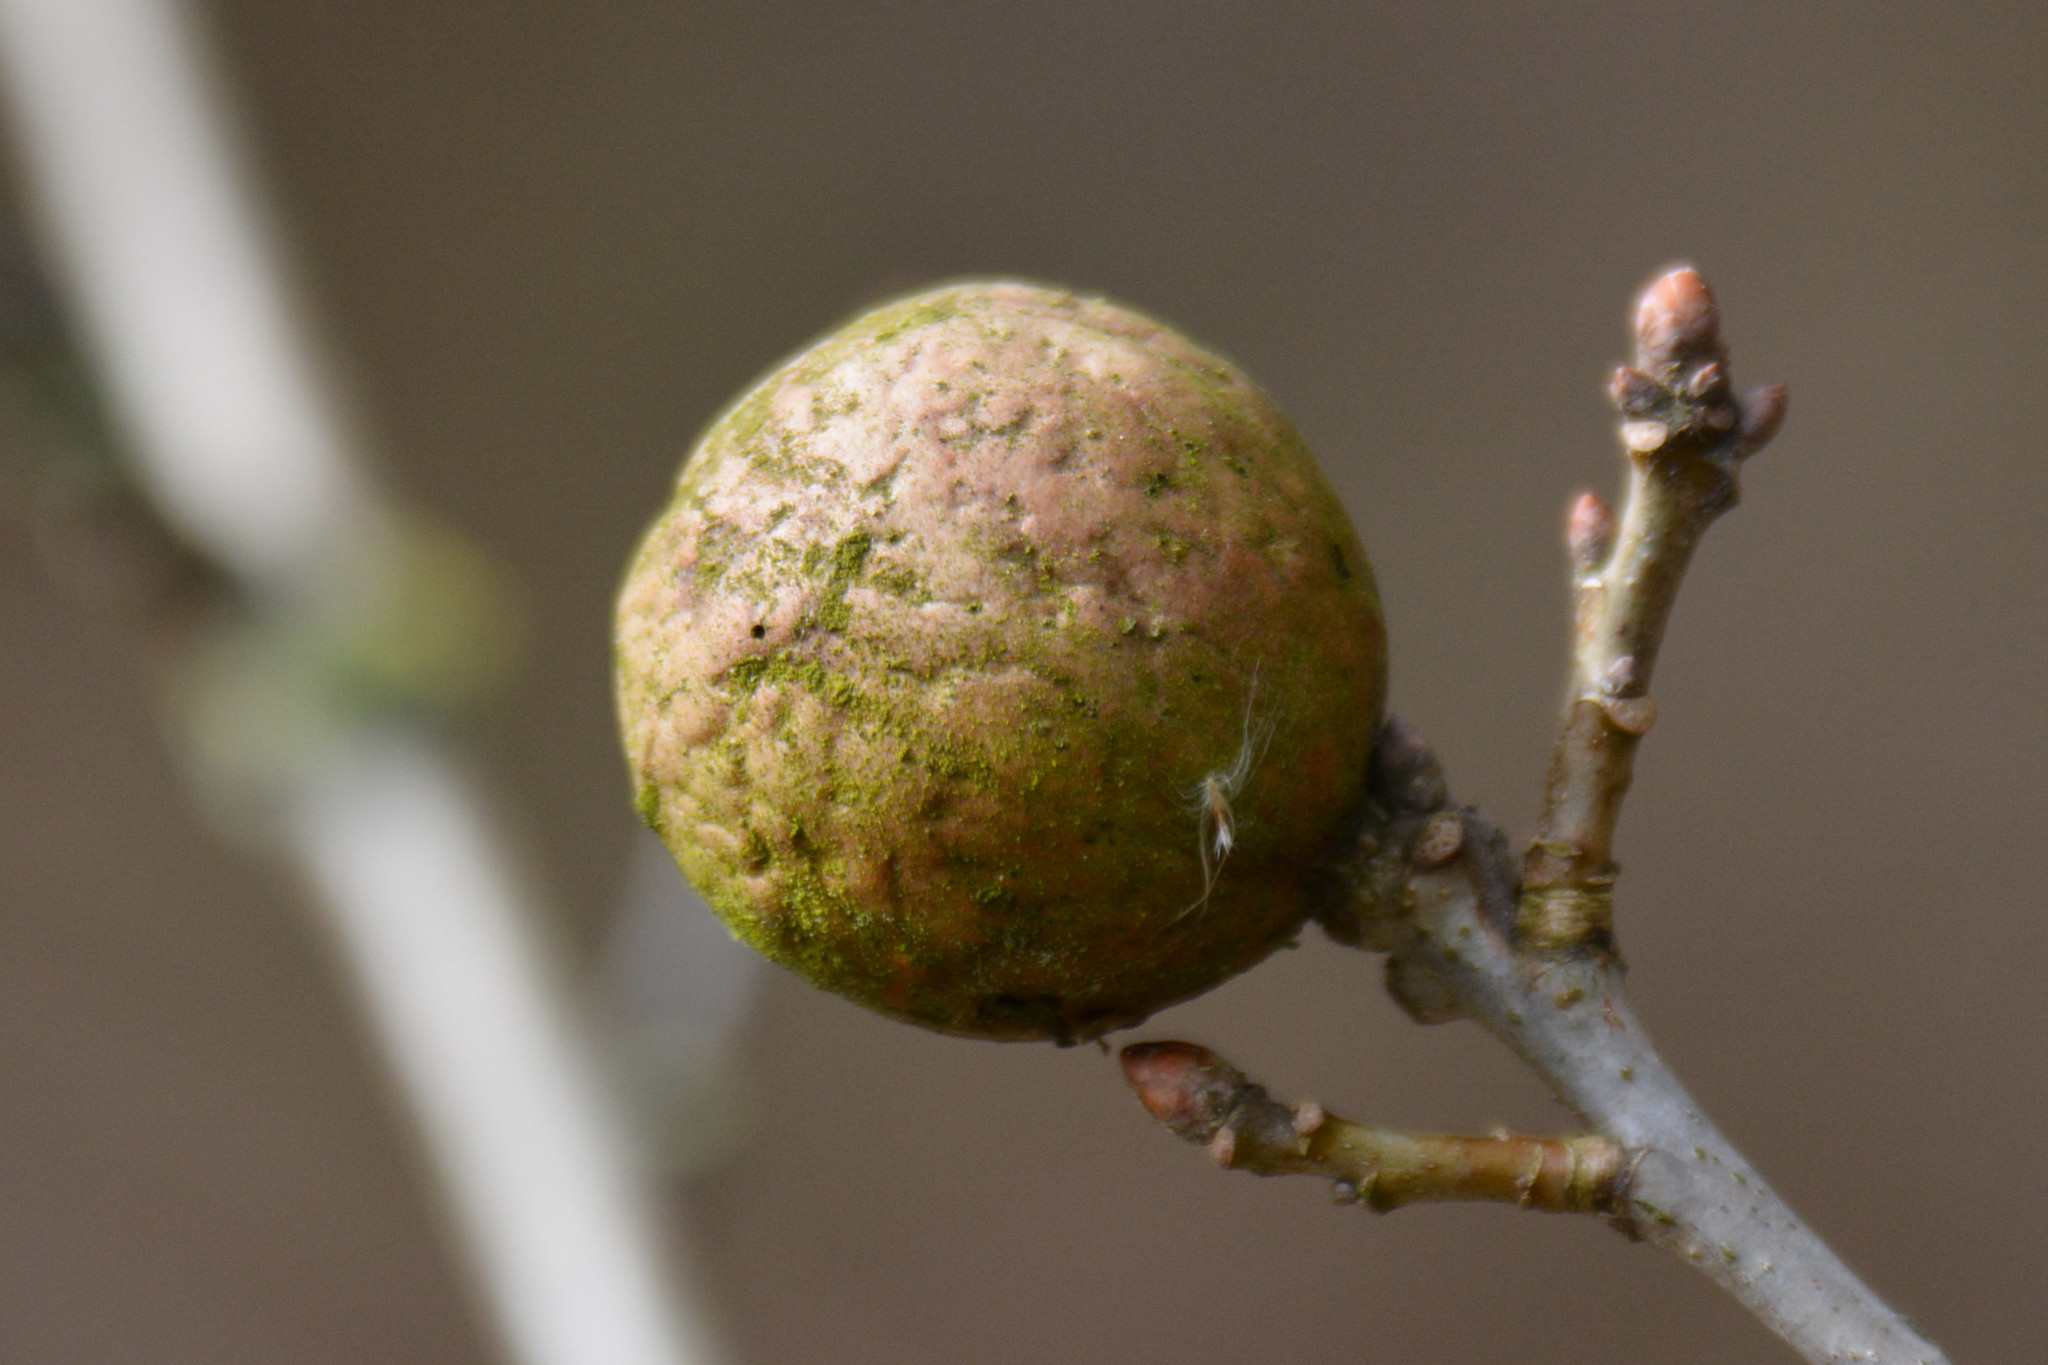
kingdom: Animalia
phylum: Arthropoda
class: Insecta
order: Hymenoptera
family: Cynipidae
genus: Andricus
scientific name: Andricus kollari
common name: Marble gall
